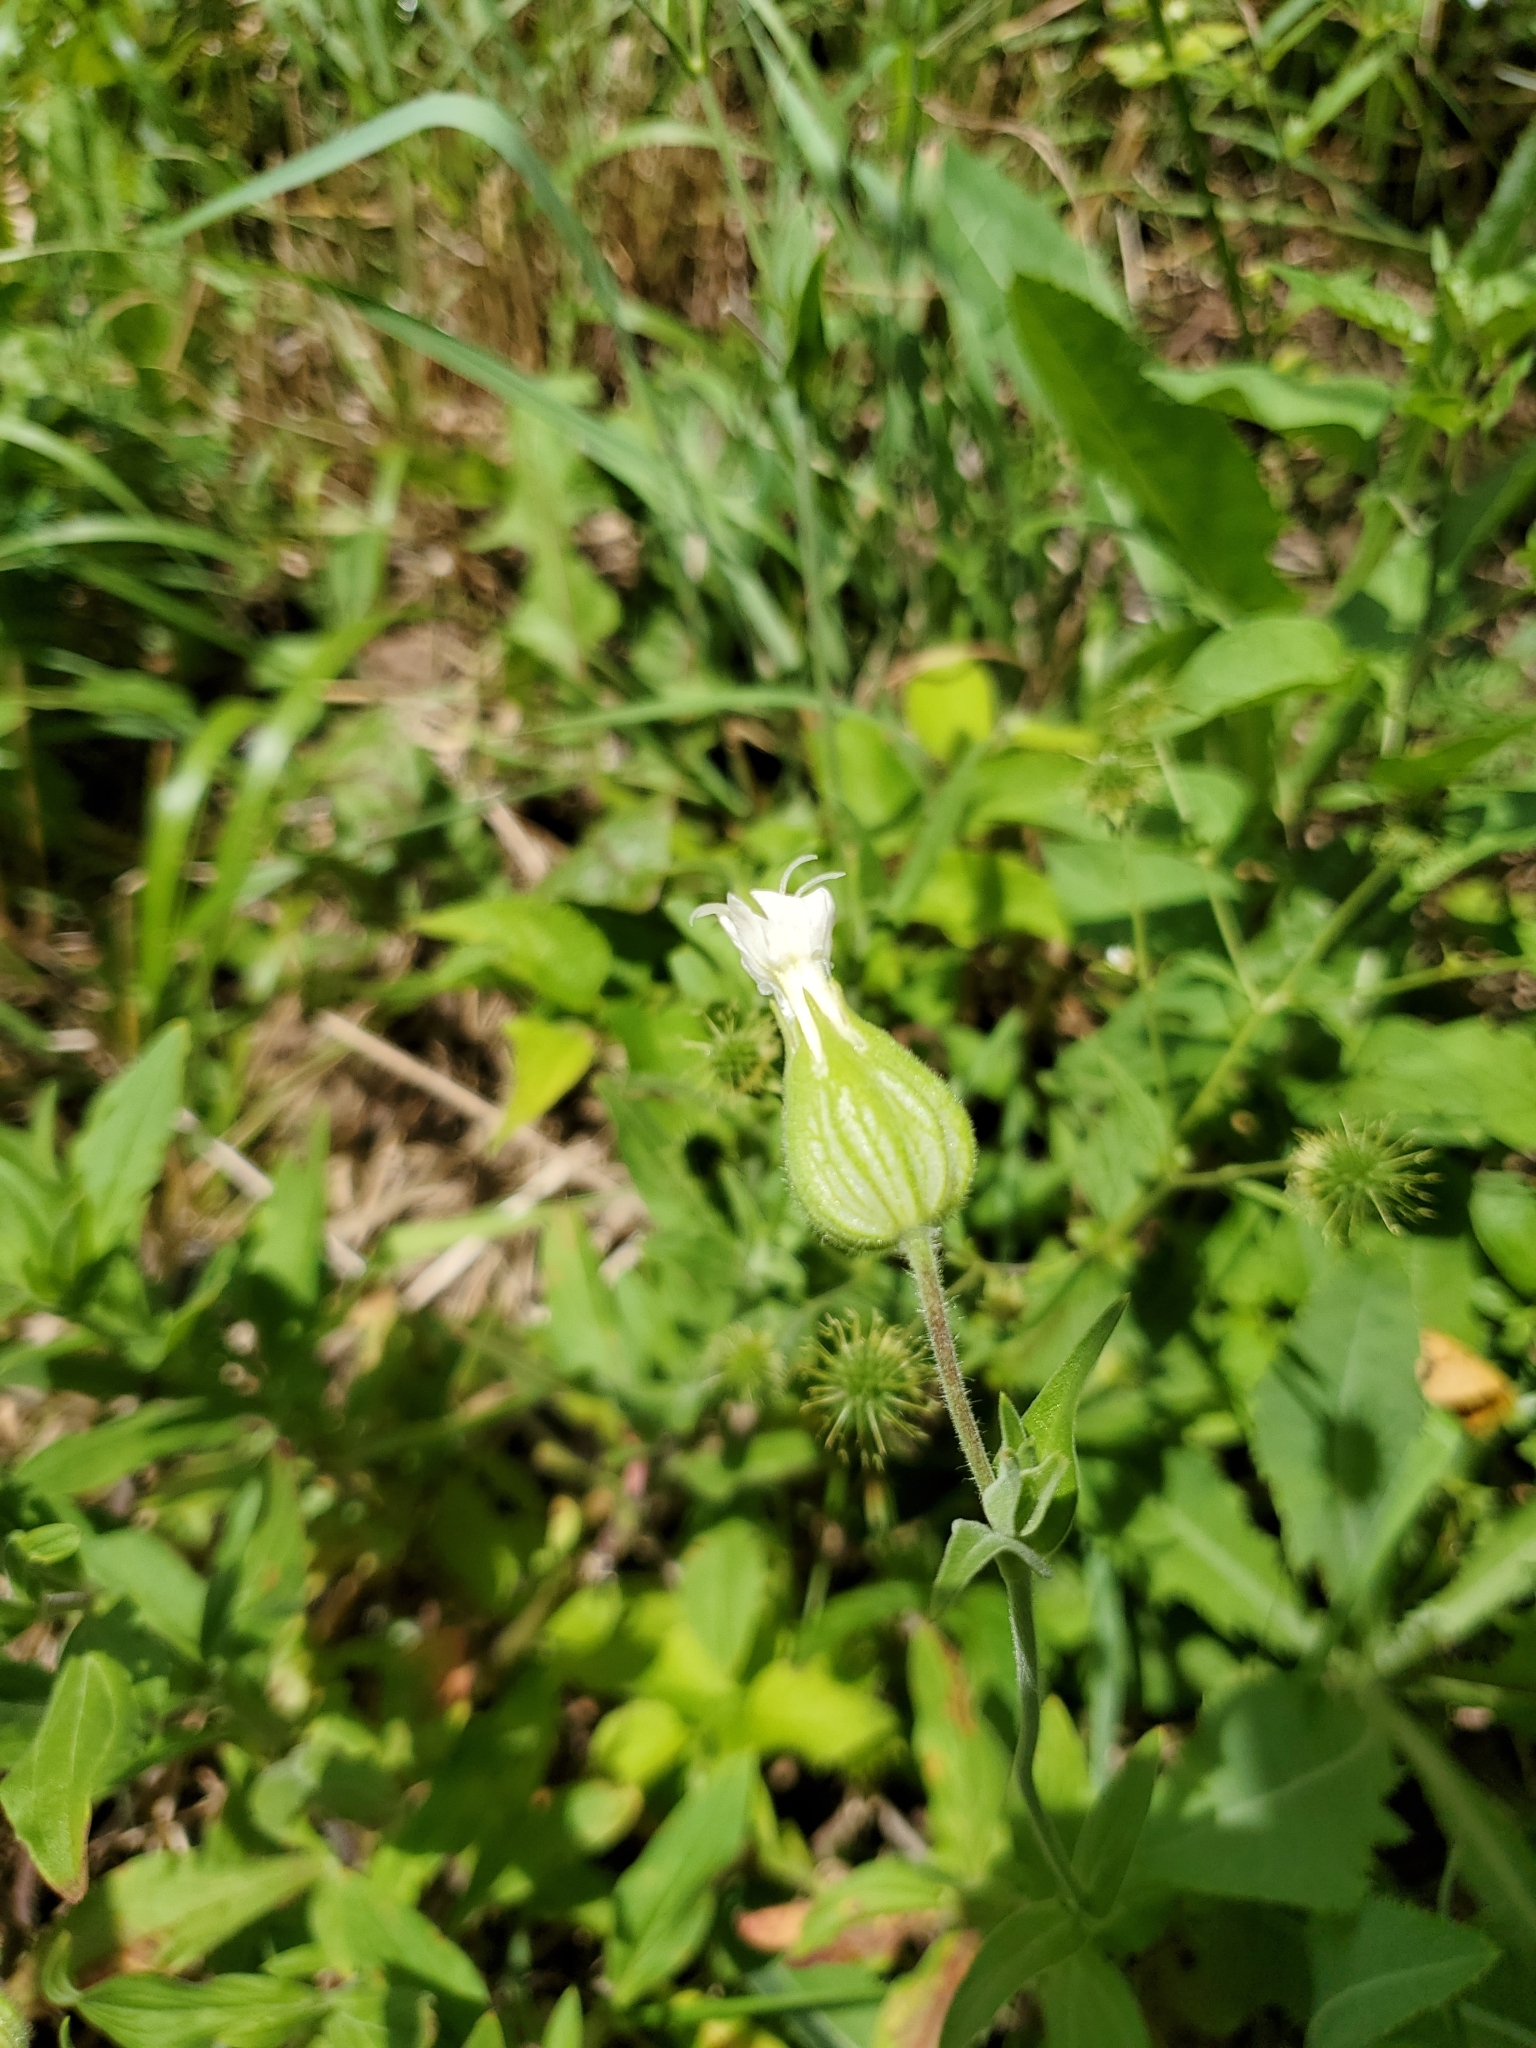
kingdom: Plantae
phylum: Tracheophyta
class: Magnoliopsida
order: Caryophyllales
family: Caryophyllaceae
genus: Silene
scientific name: Silene latifolia
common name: White campion
